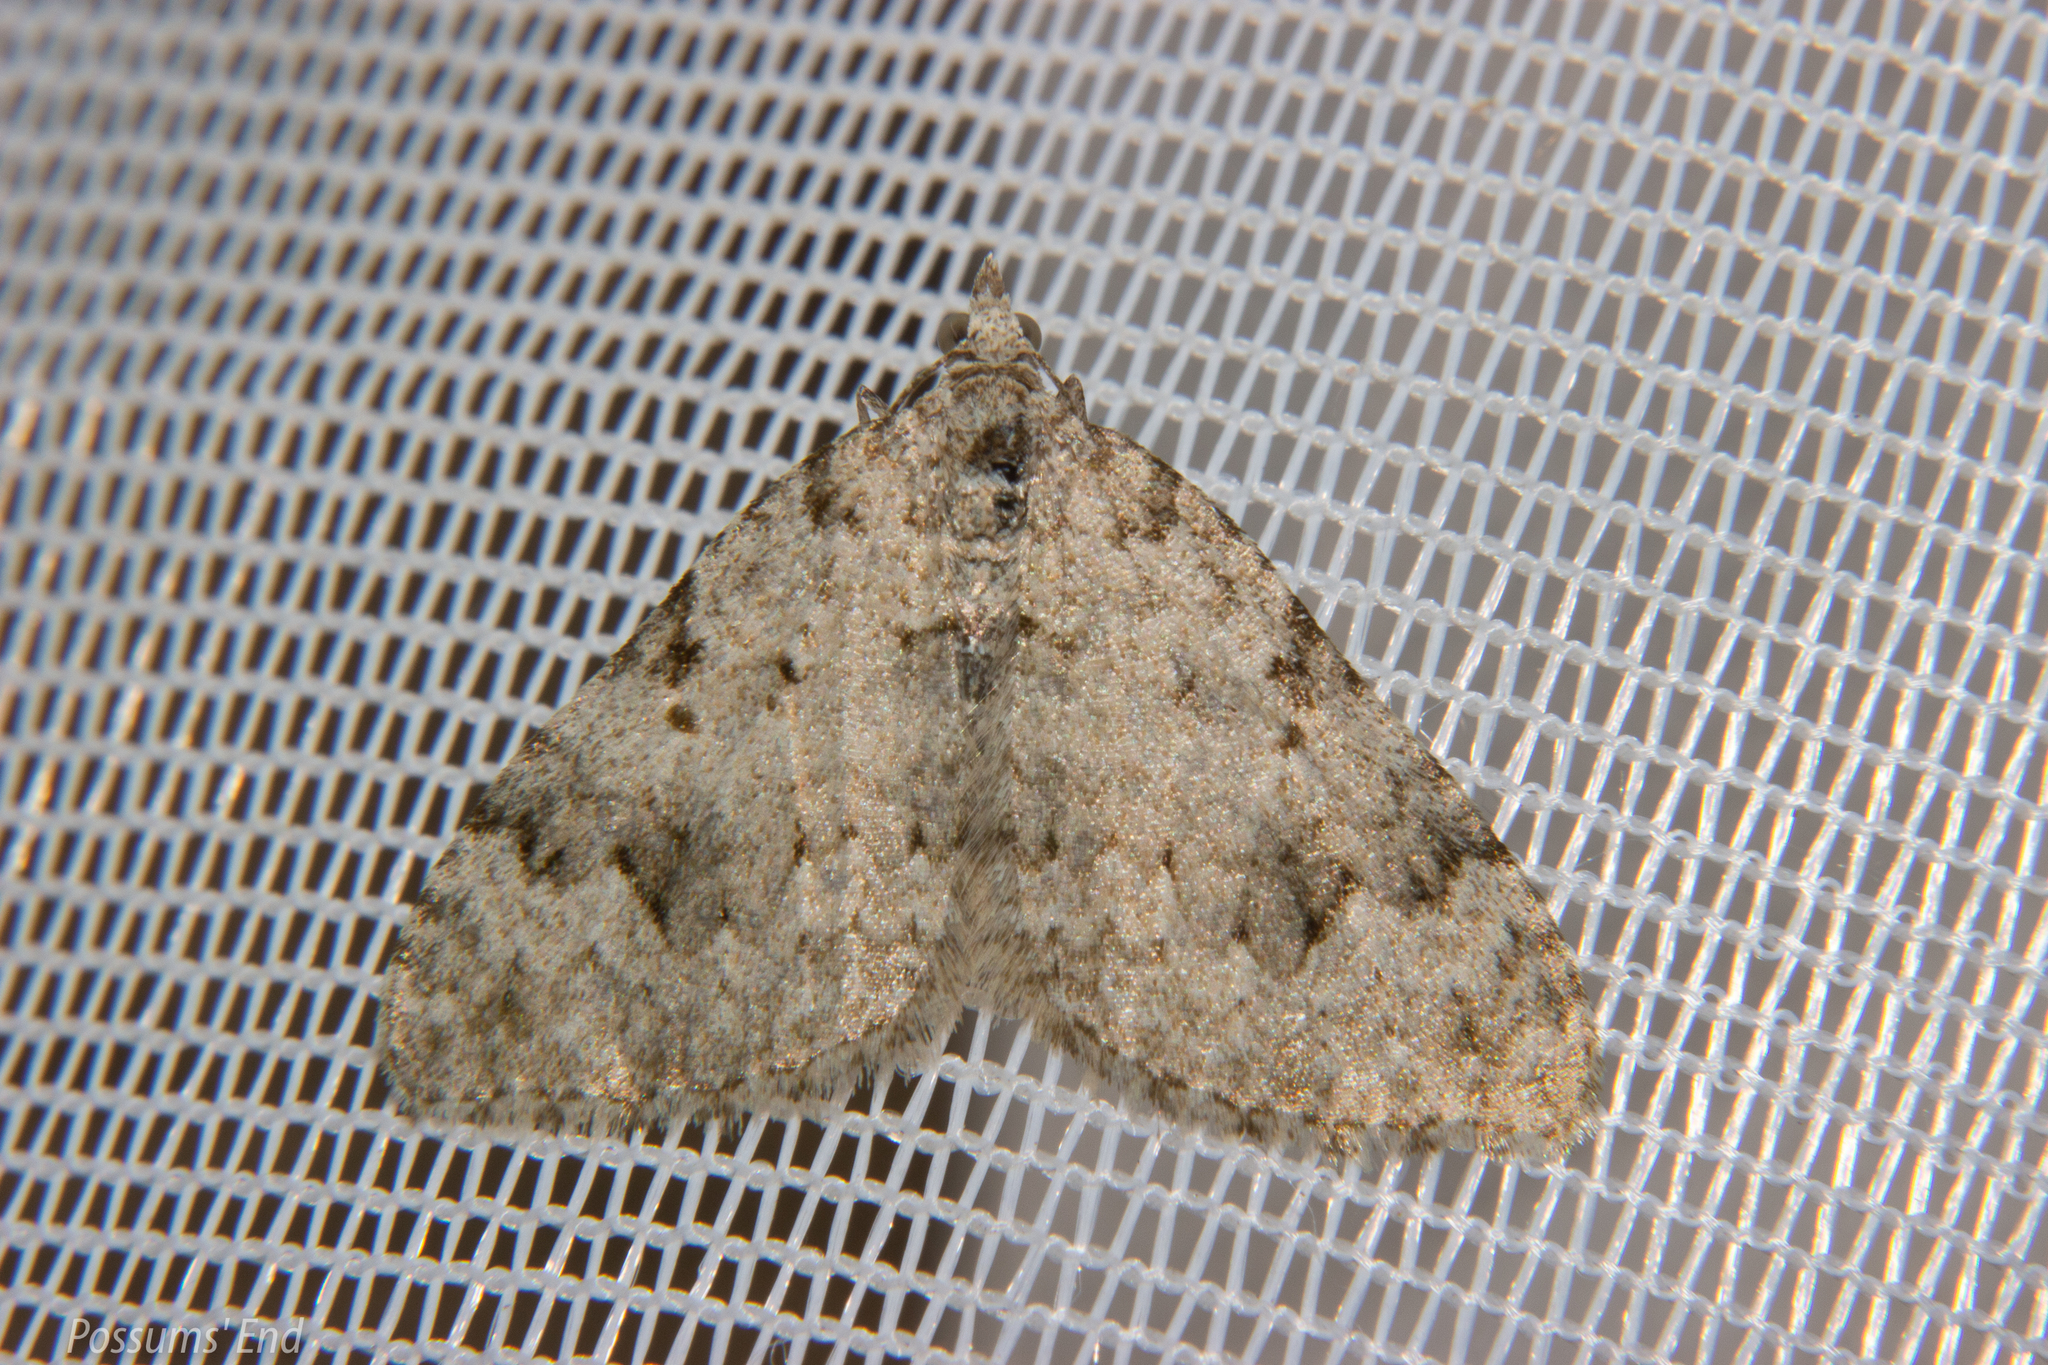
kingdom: Animalia
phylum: Arthropoda
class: Insecta
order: Lepidoptera
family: Geometridae
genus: Helastia
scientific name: Helastia cinerearia
